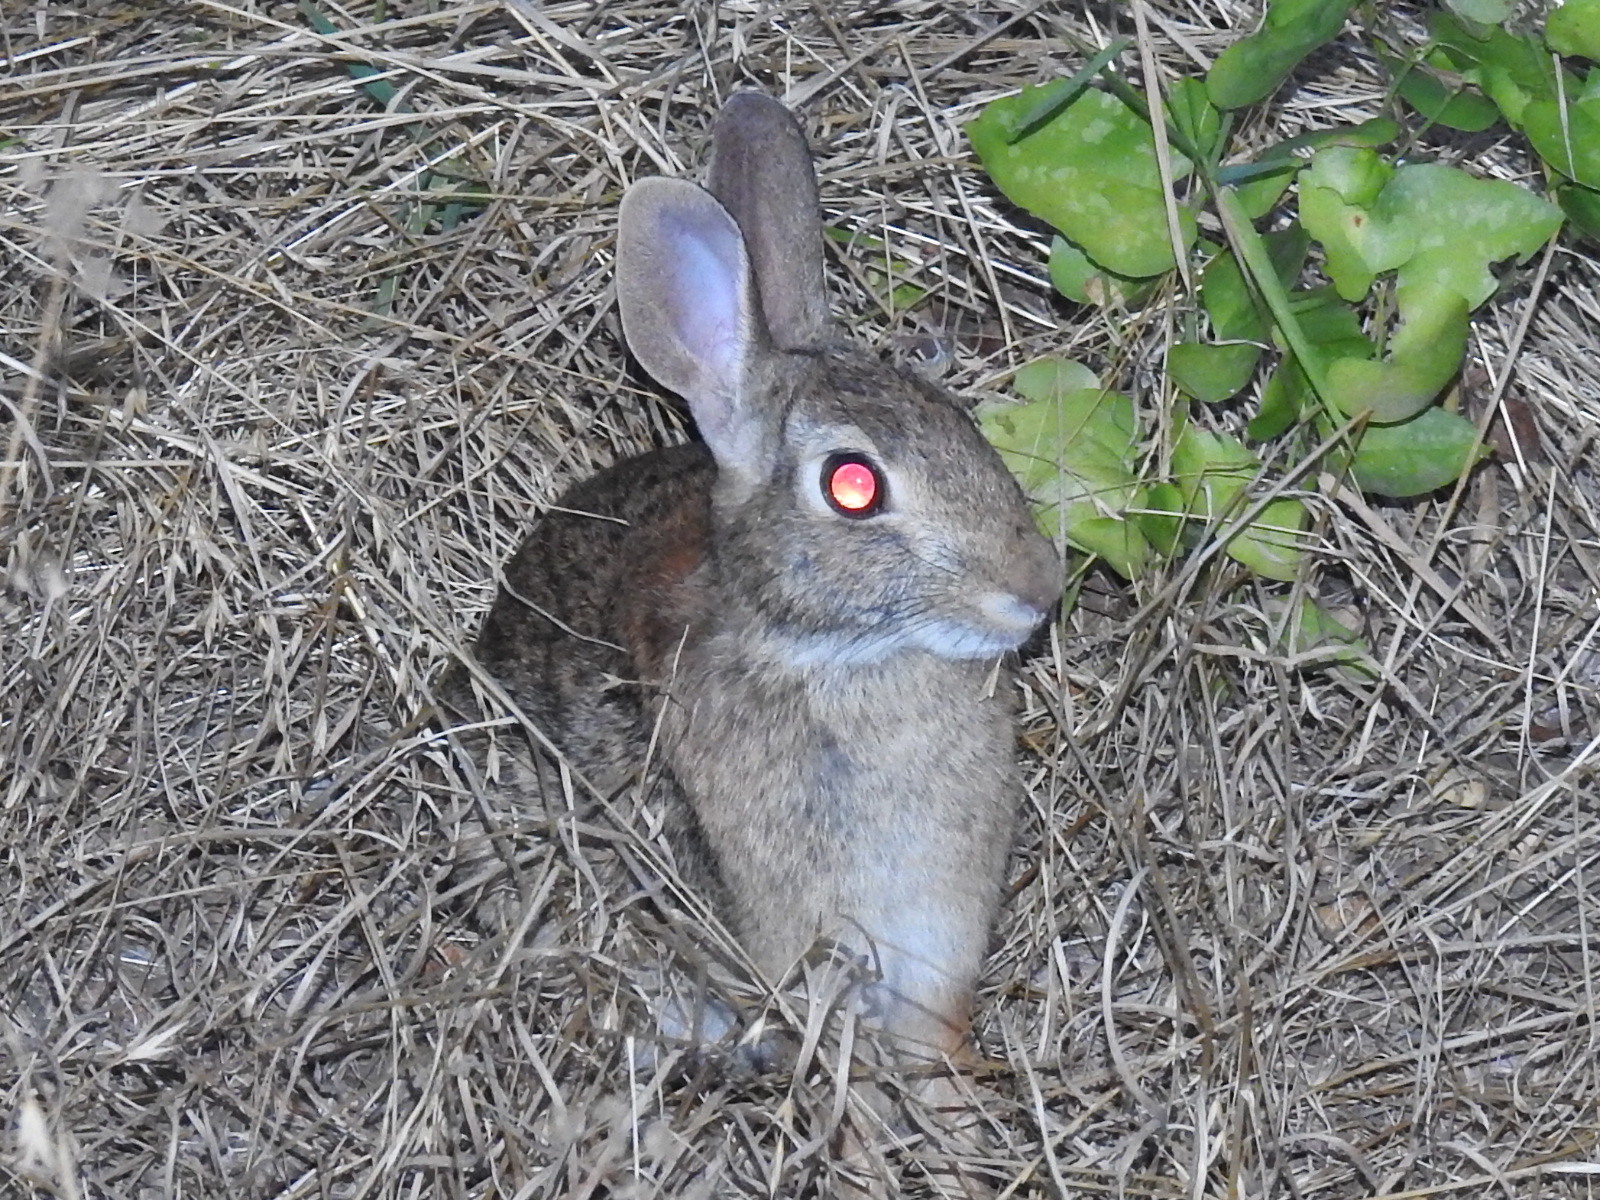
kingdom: Animalia
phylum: Chordata
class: Mammalia
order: Lagomorpha
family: Leporidae
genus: Sylvilagus
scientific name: Sylvilagus floridanus
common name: Eastern cottontail
